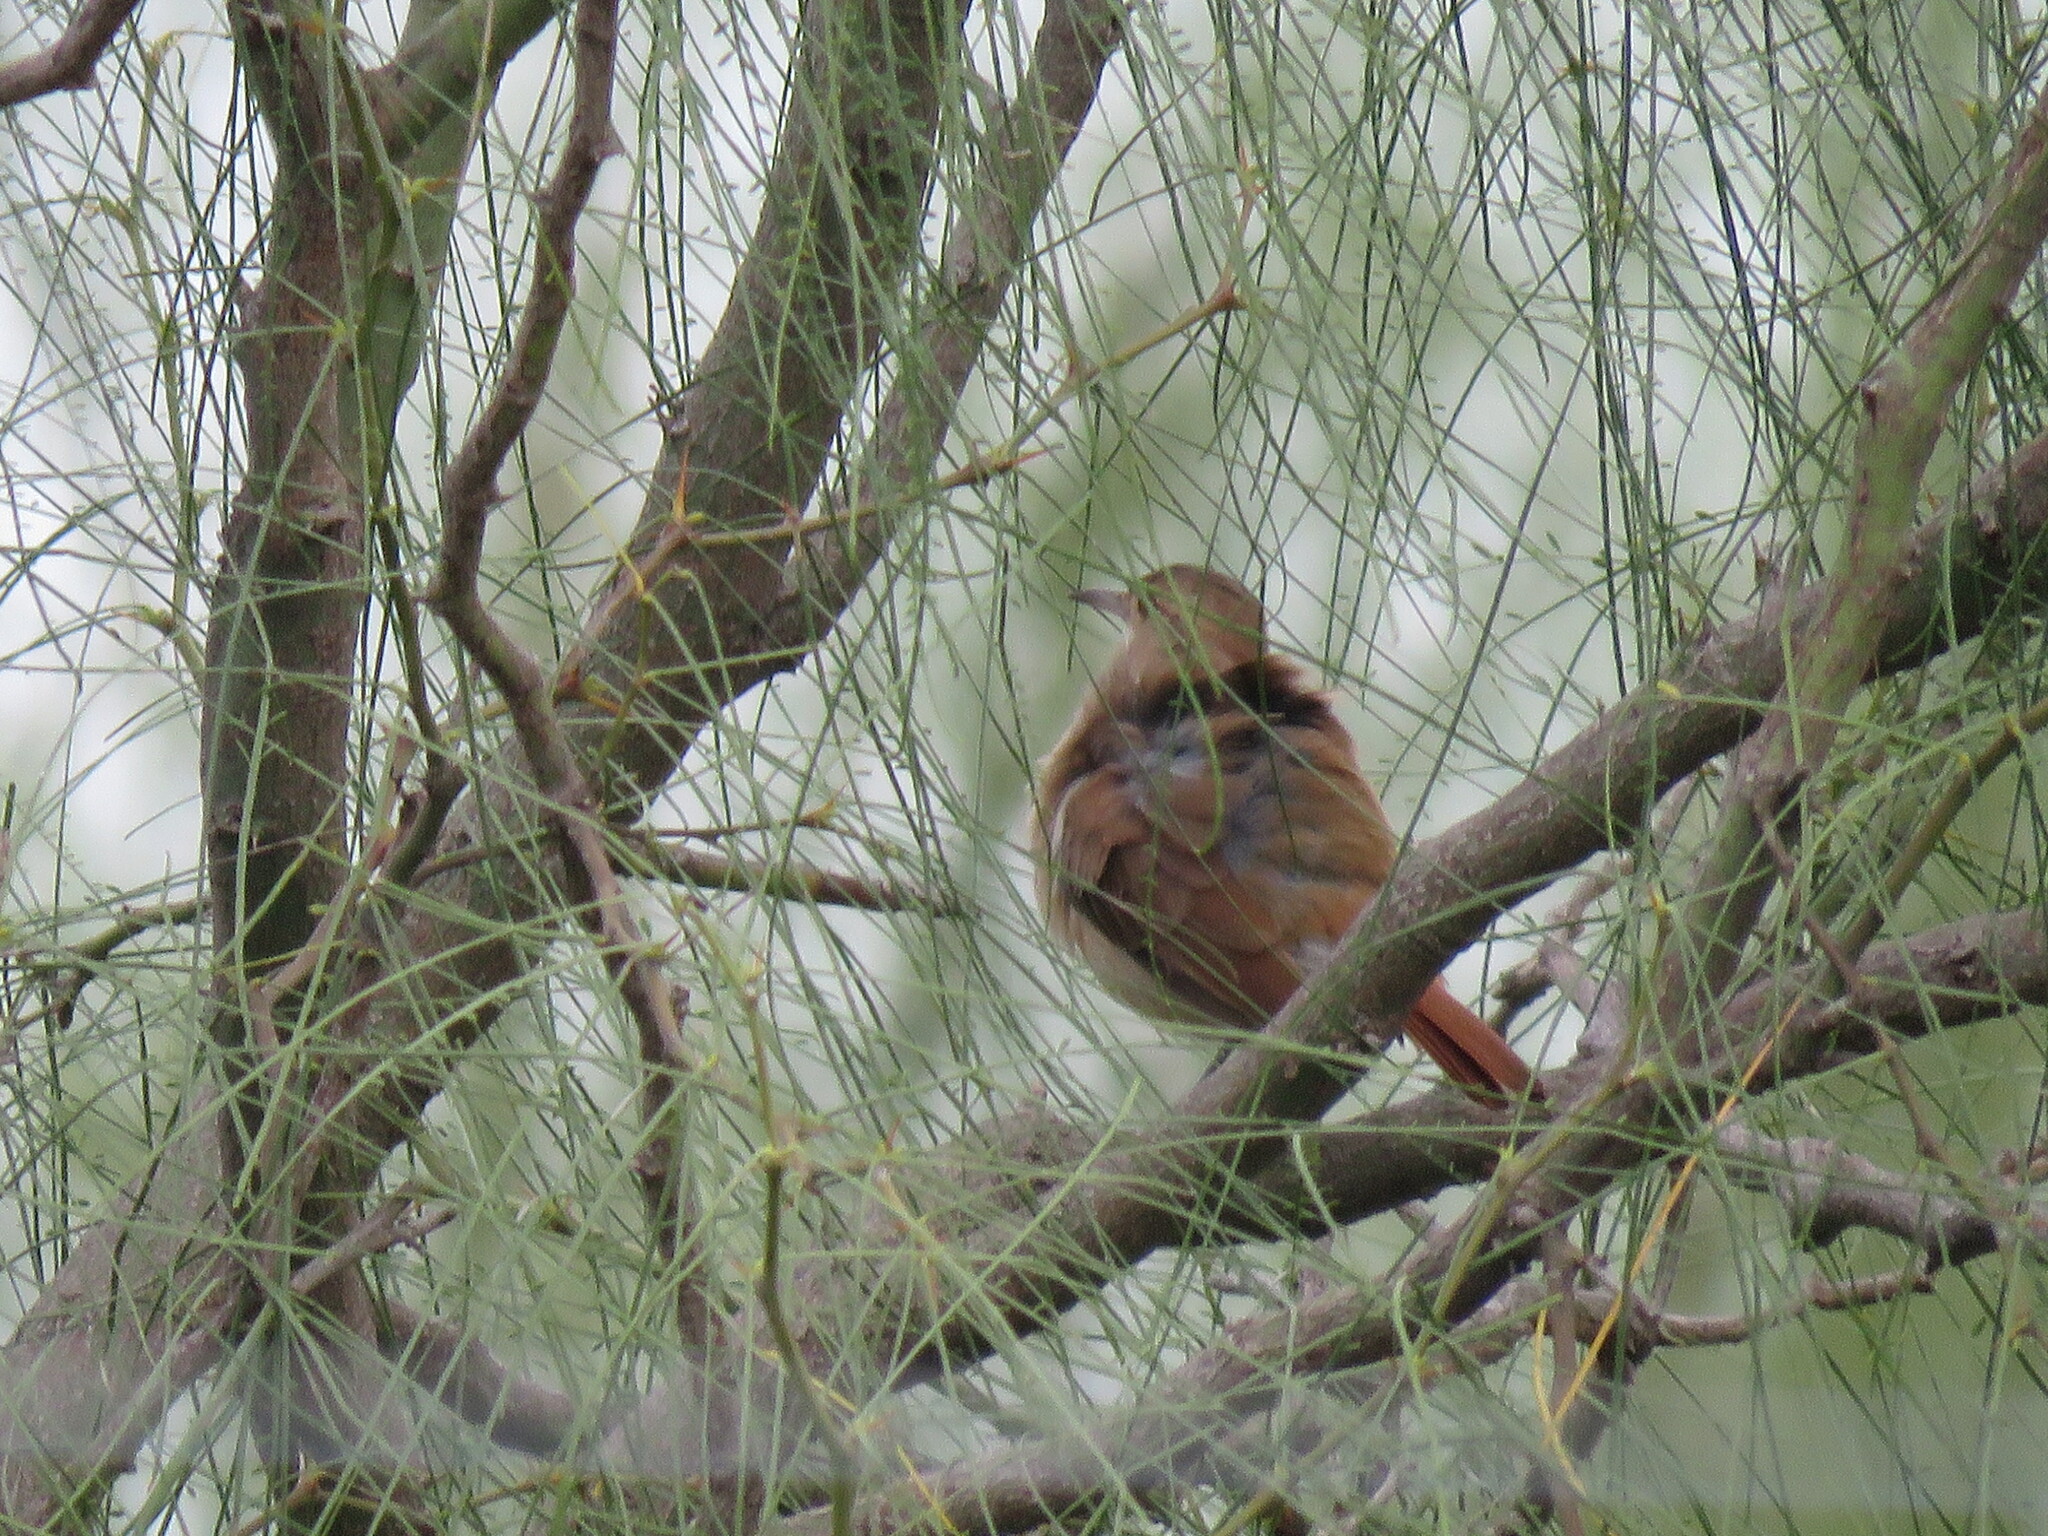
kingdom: Animalia
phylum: Chordata
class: Aves
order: Passeriformes
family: Furnariidae
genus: Furnarius
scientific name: Furnarius rufus
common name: Rufous hornero
